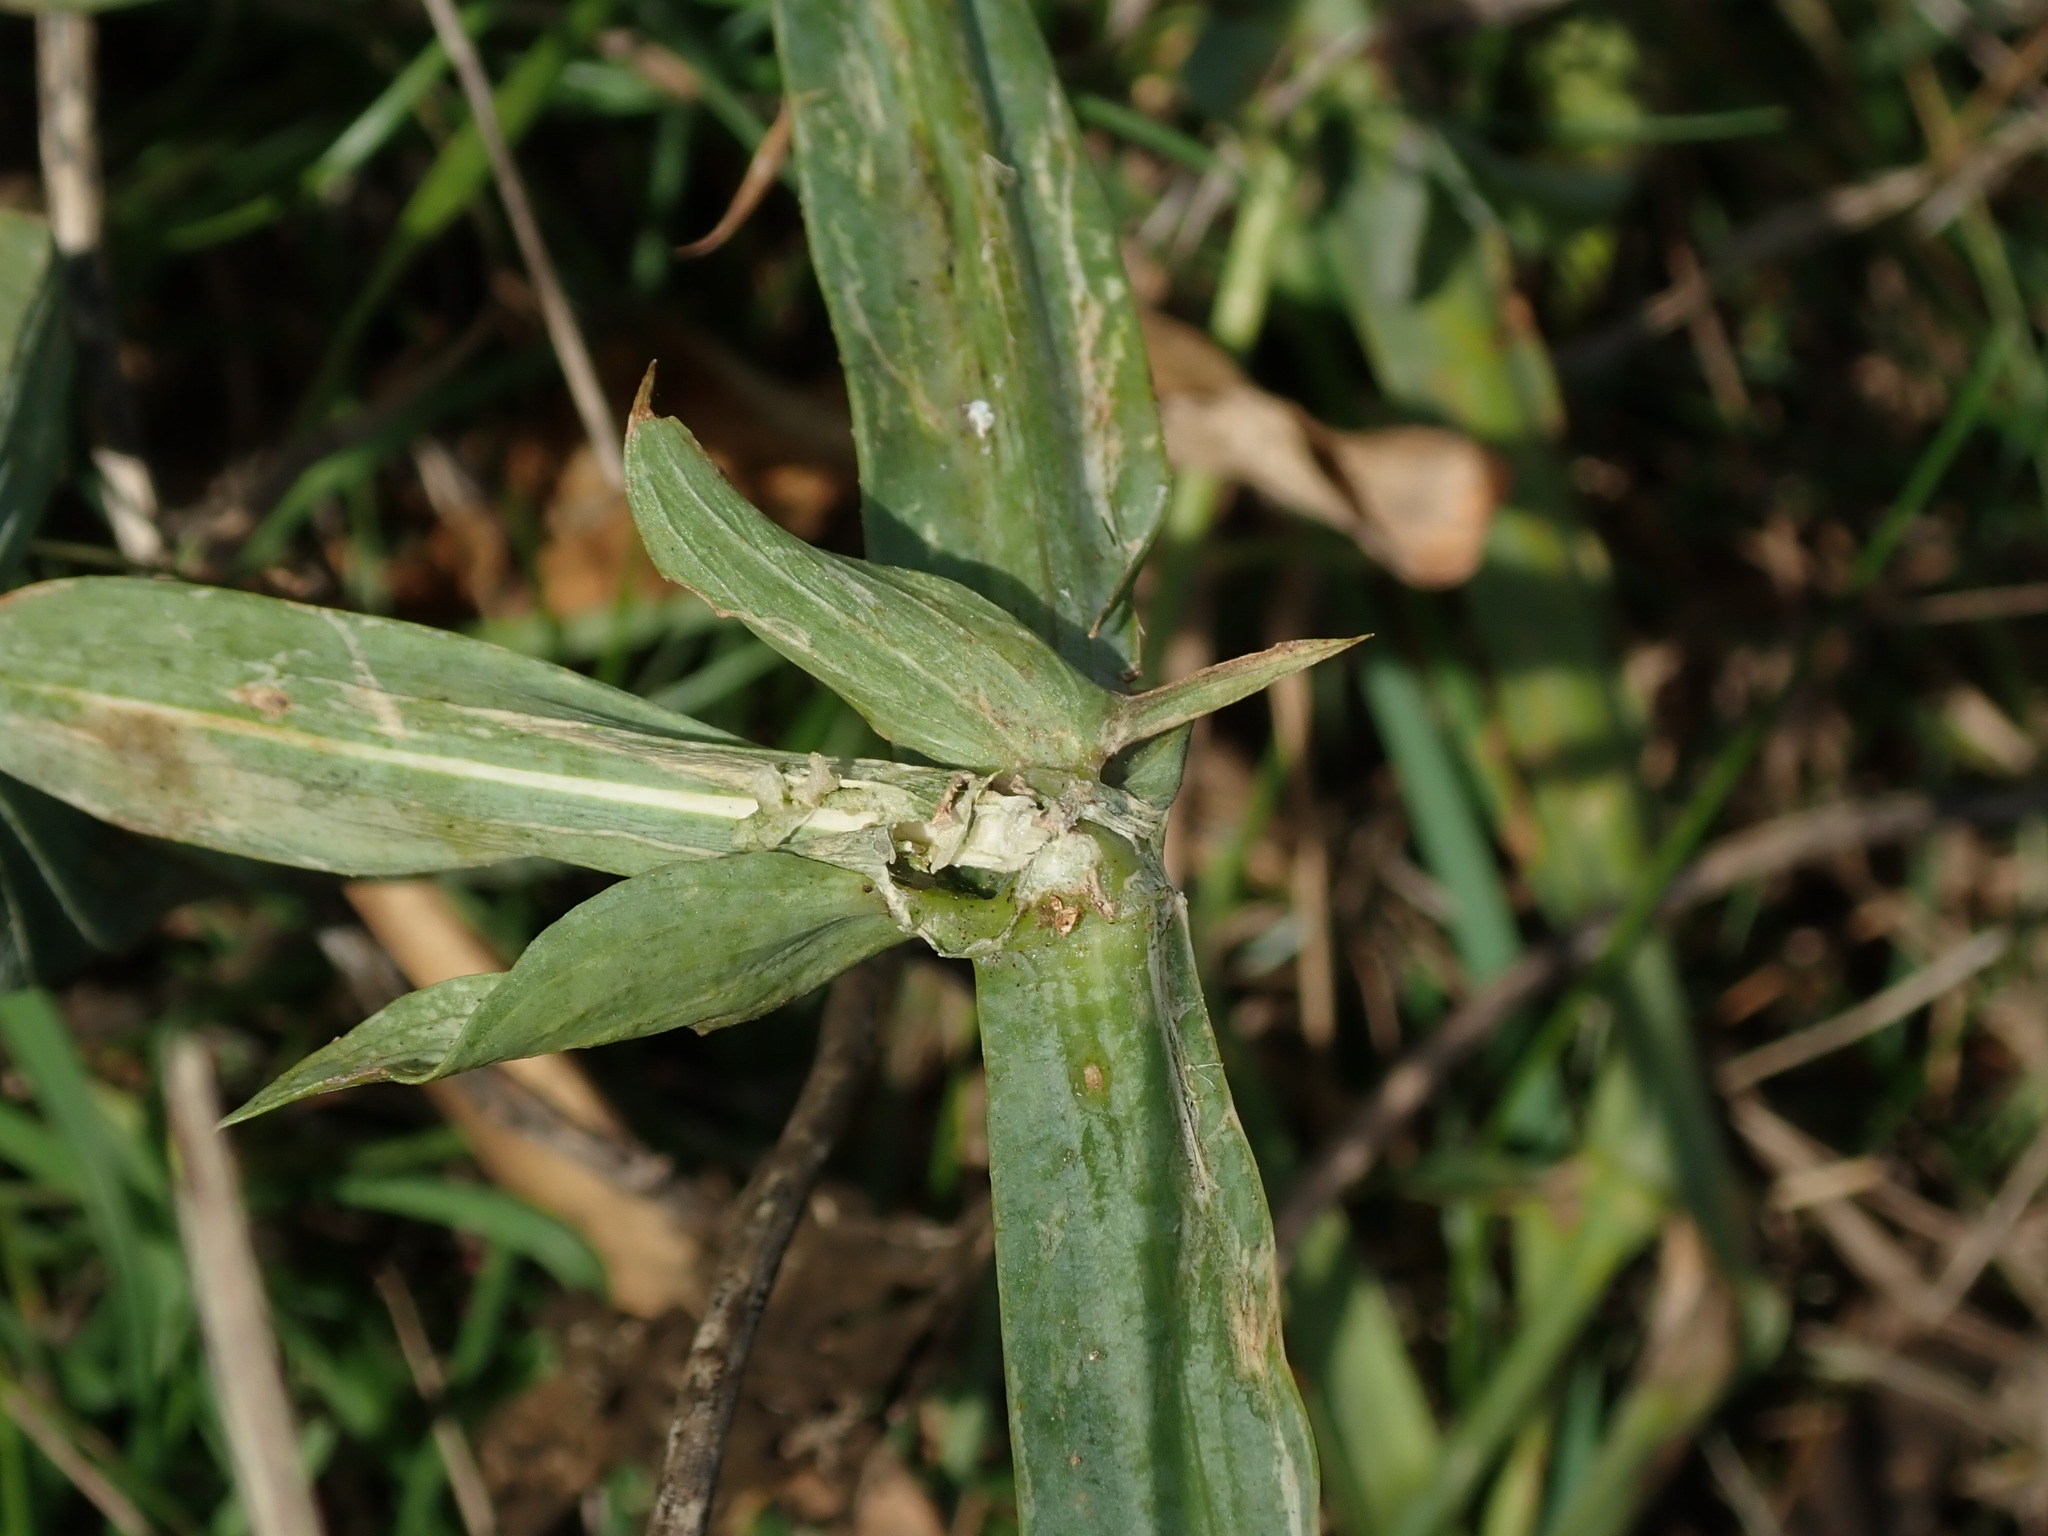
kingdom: Plantae
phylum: Tracheophyta
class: Magnoliopsida
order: Fabales
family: Fabaceae
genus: Lathyrus
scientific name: Lathyrus latifolius
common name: Perennial pea
